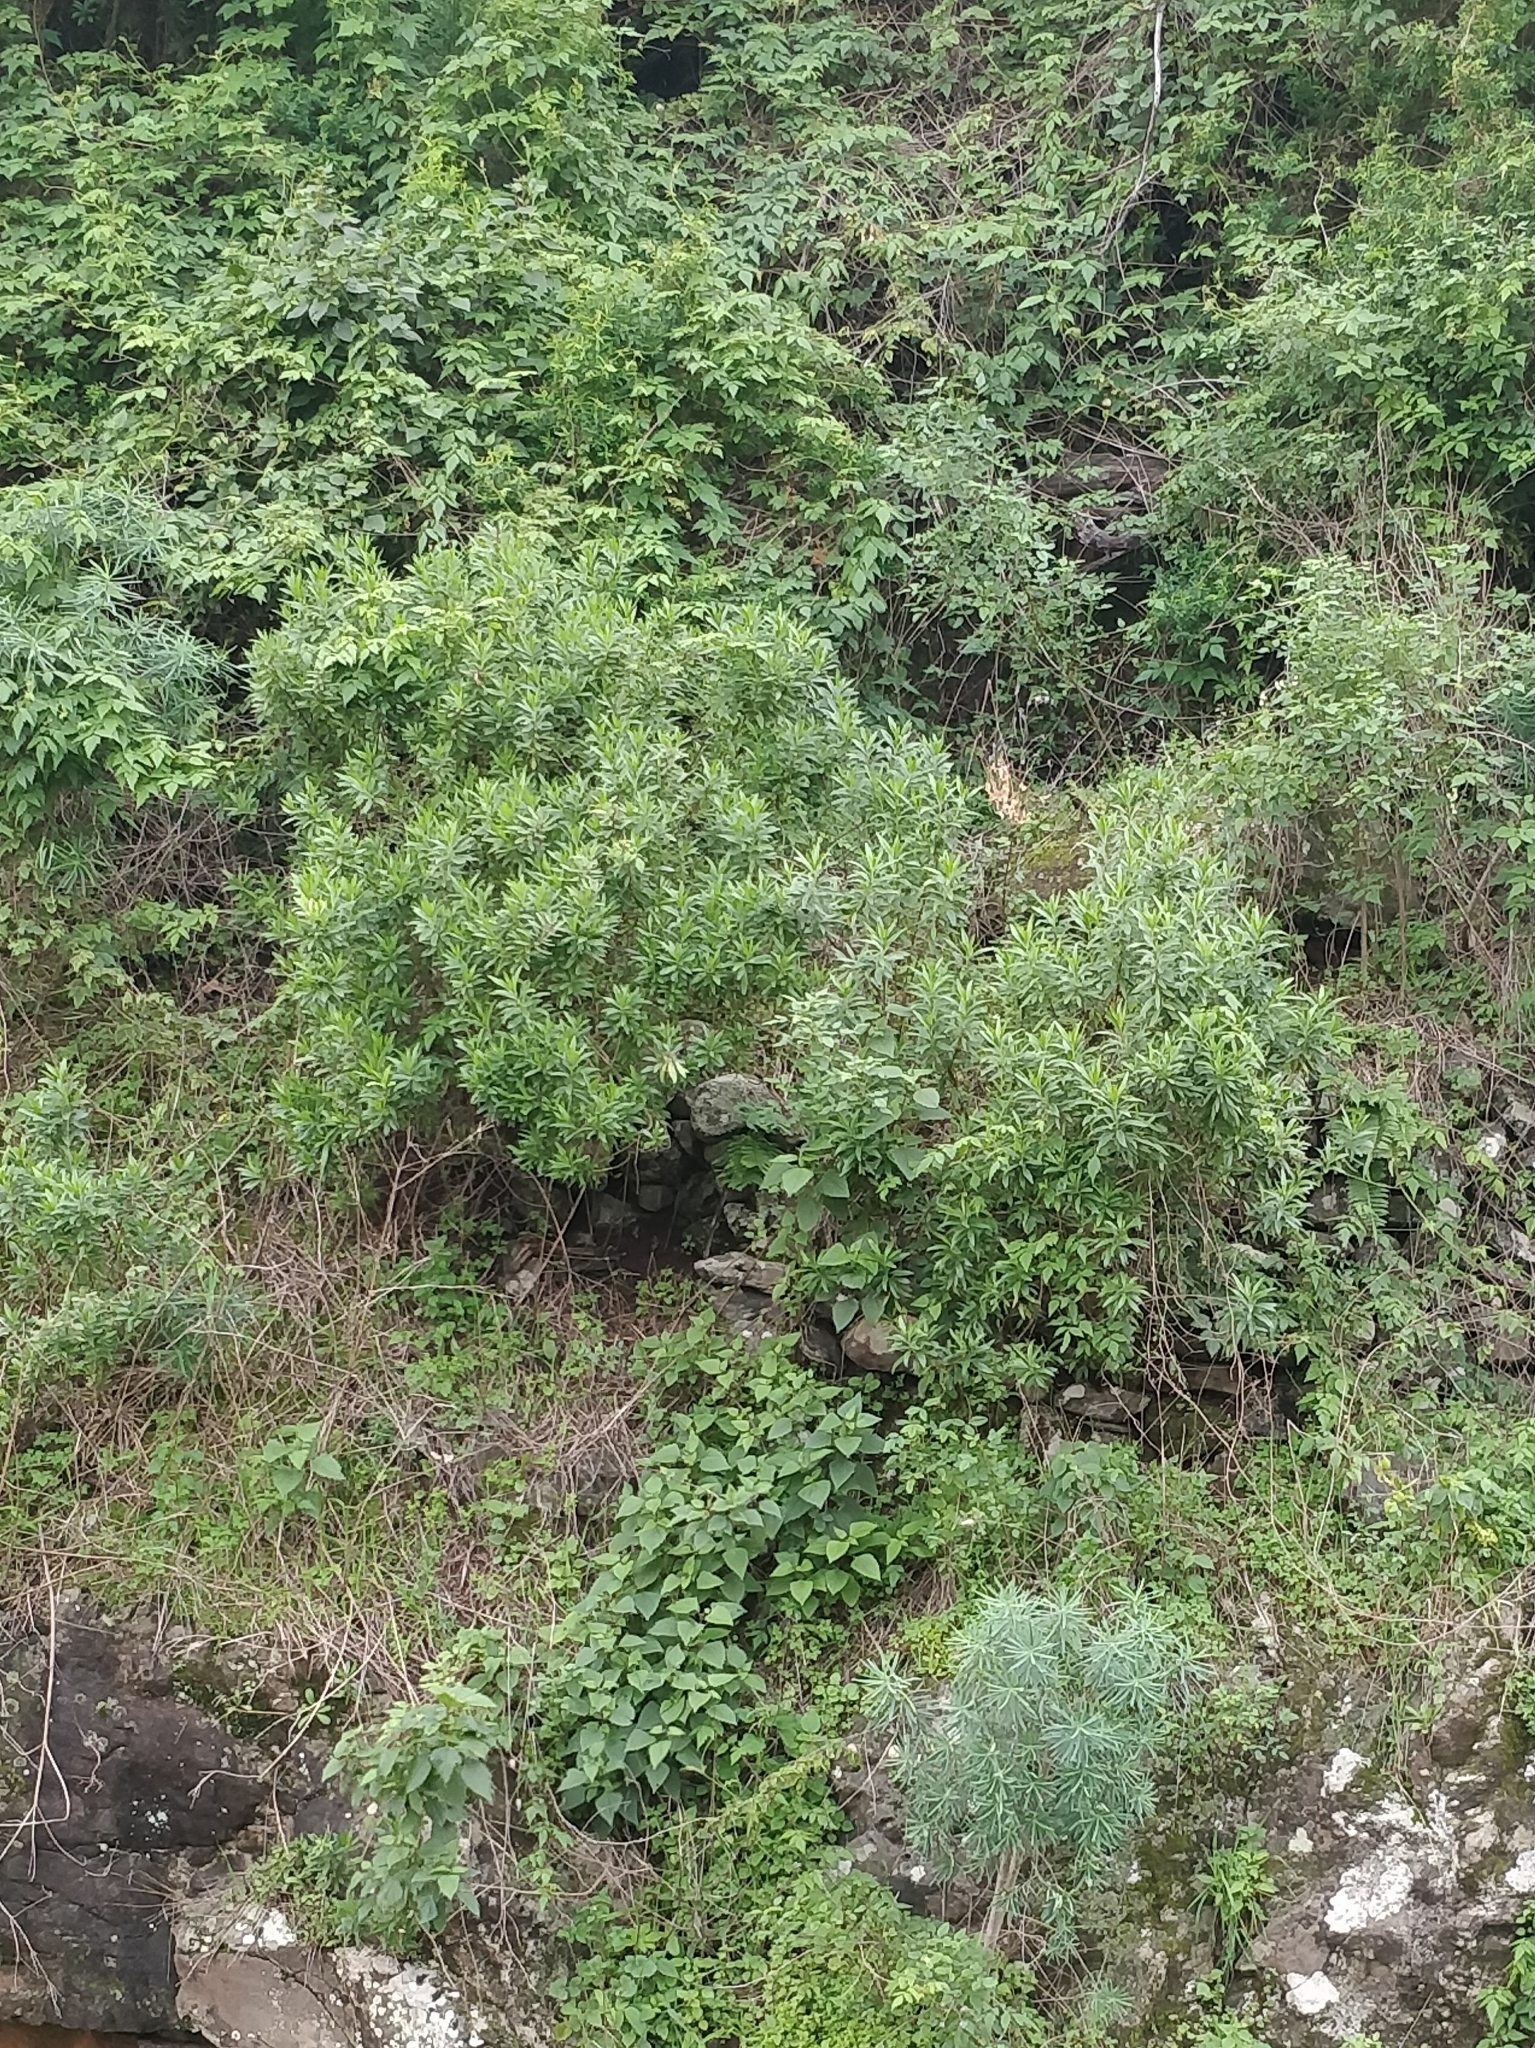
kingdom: Plantae
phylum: Tracheophyta
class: Magnoliopsida
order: Lamiales
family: Plantaginaceae
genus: Globularia
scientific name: Globularia salicina
